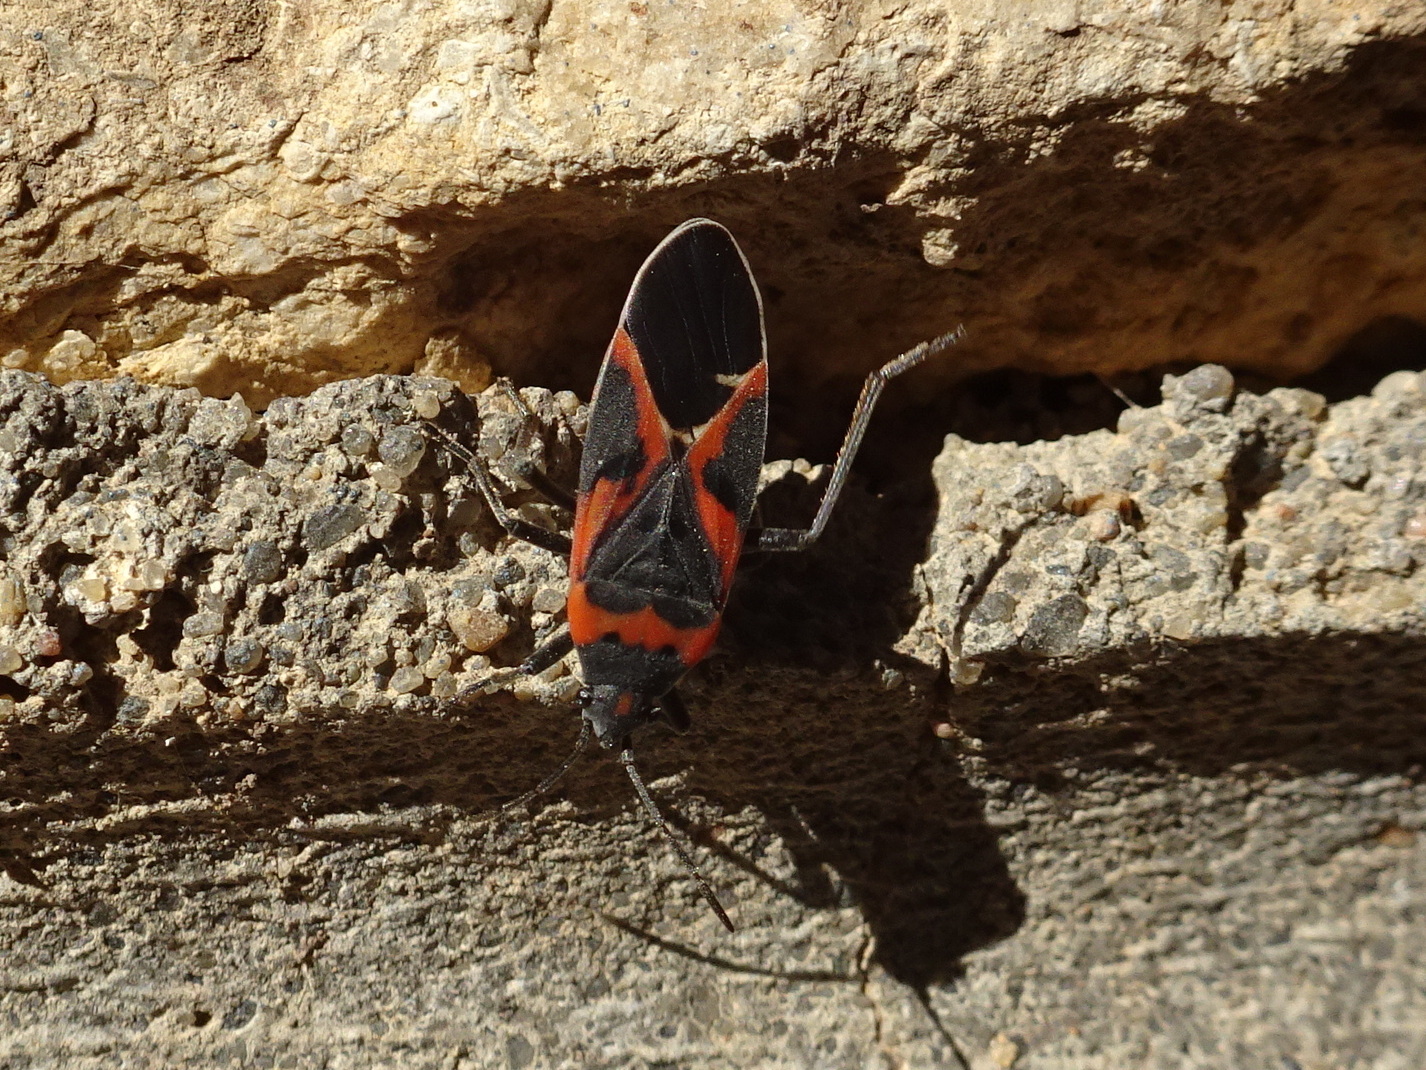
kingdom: Animalia
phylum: Arthropoda
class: Insecta
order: Hemiptera
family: Lygaeidae
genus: Lygaeus
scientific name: Lygaeus kalmii
